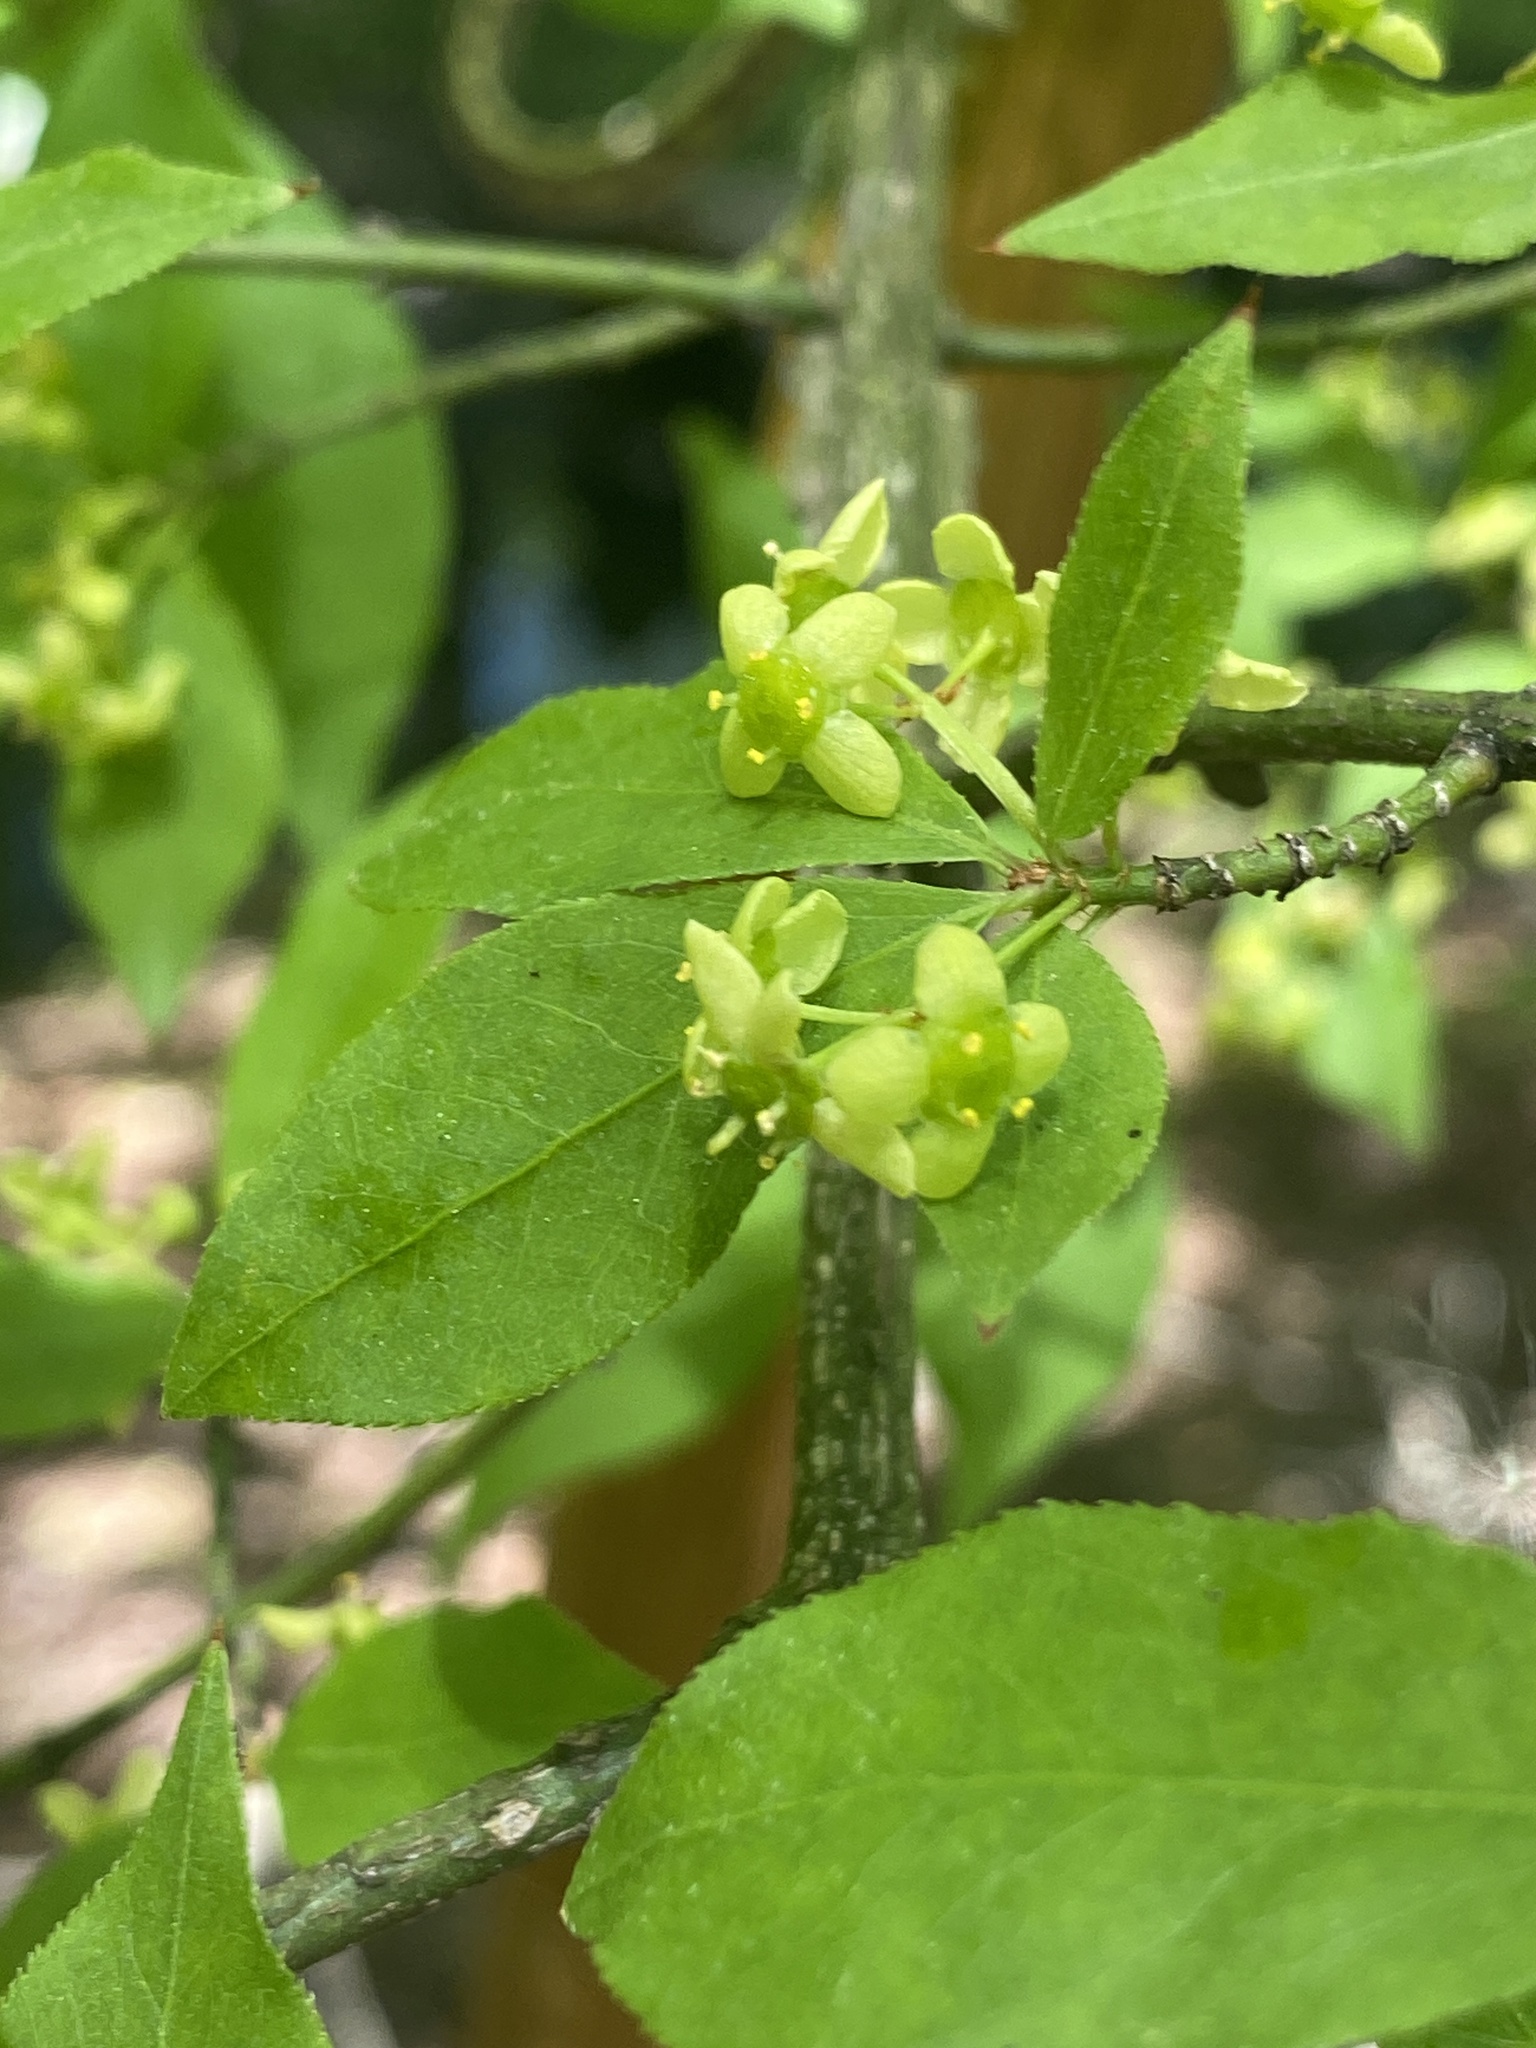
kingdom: Plantae
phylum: Tracheophyta
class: Magnoliopsida
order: Celastrales
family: Celastraceae
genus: Euonymus
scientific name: Euonymus alatus
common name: Winged euonymus
